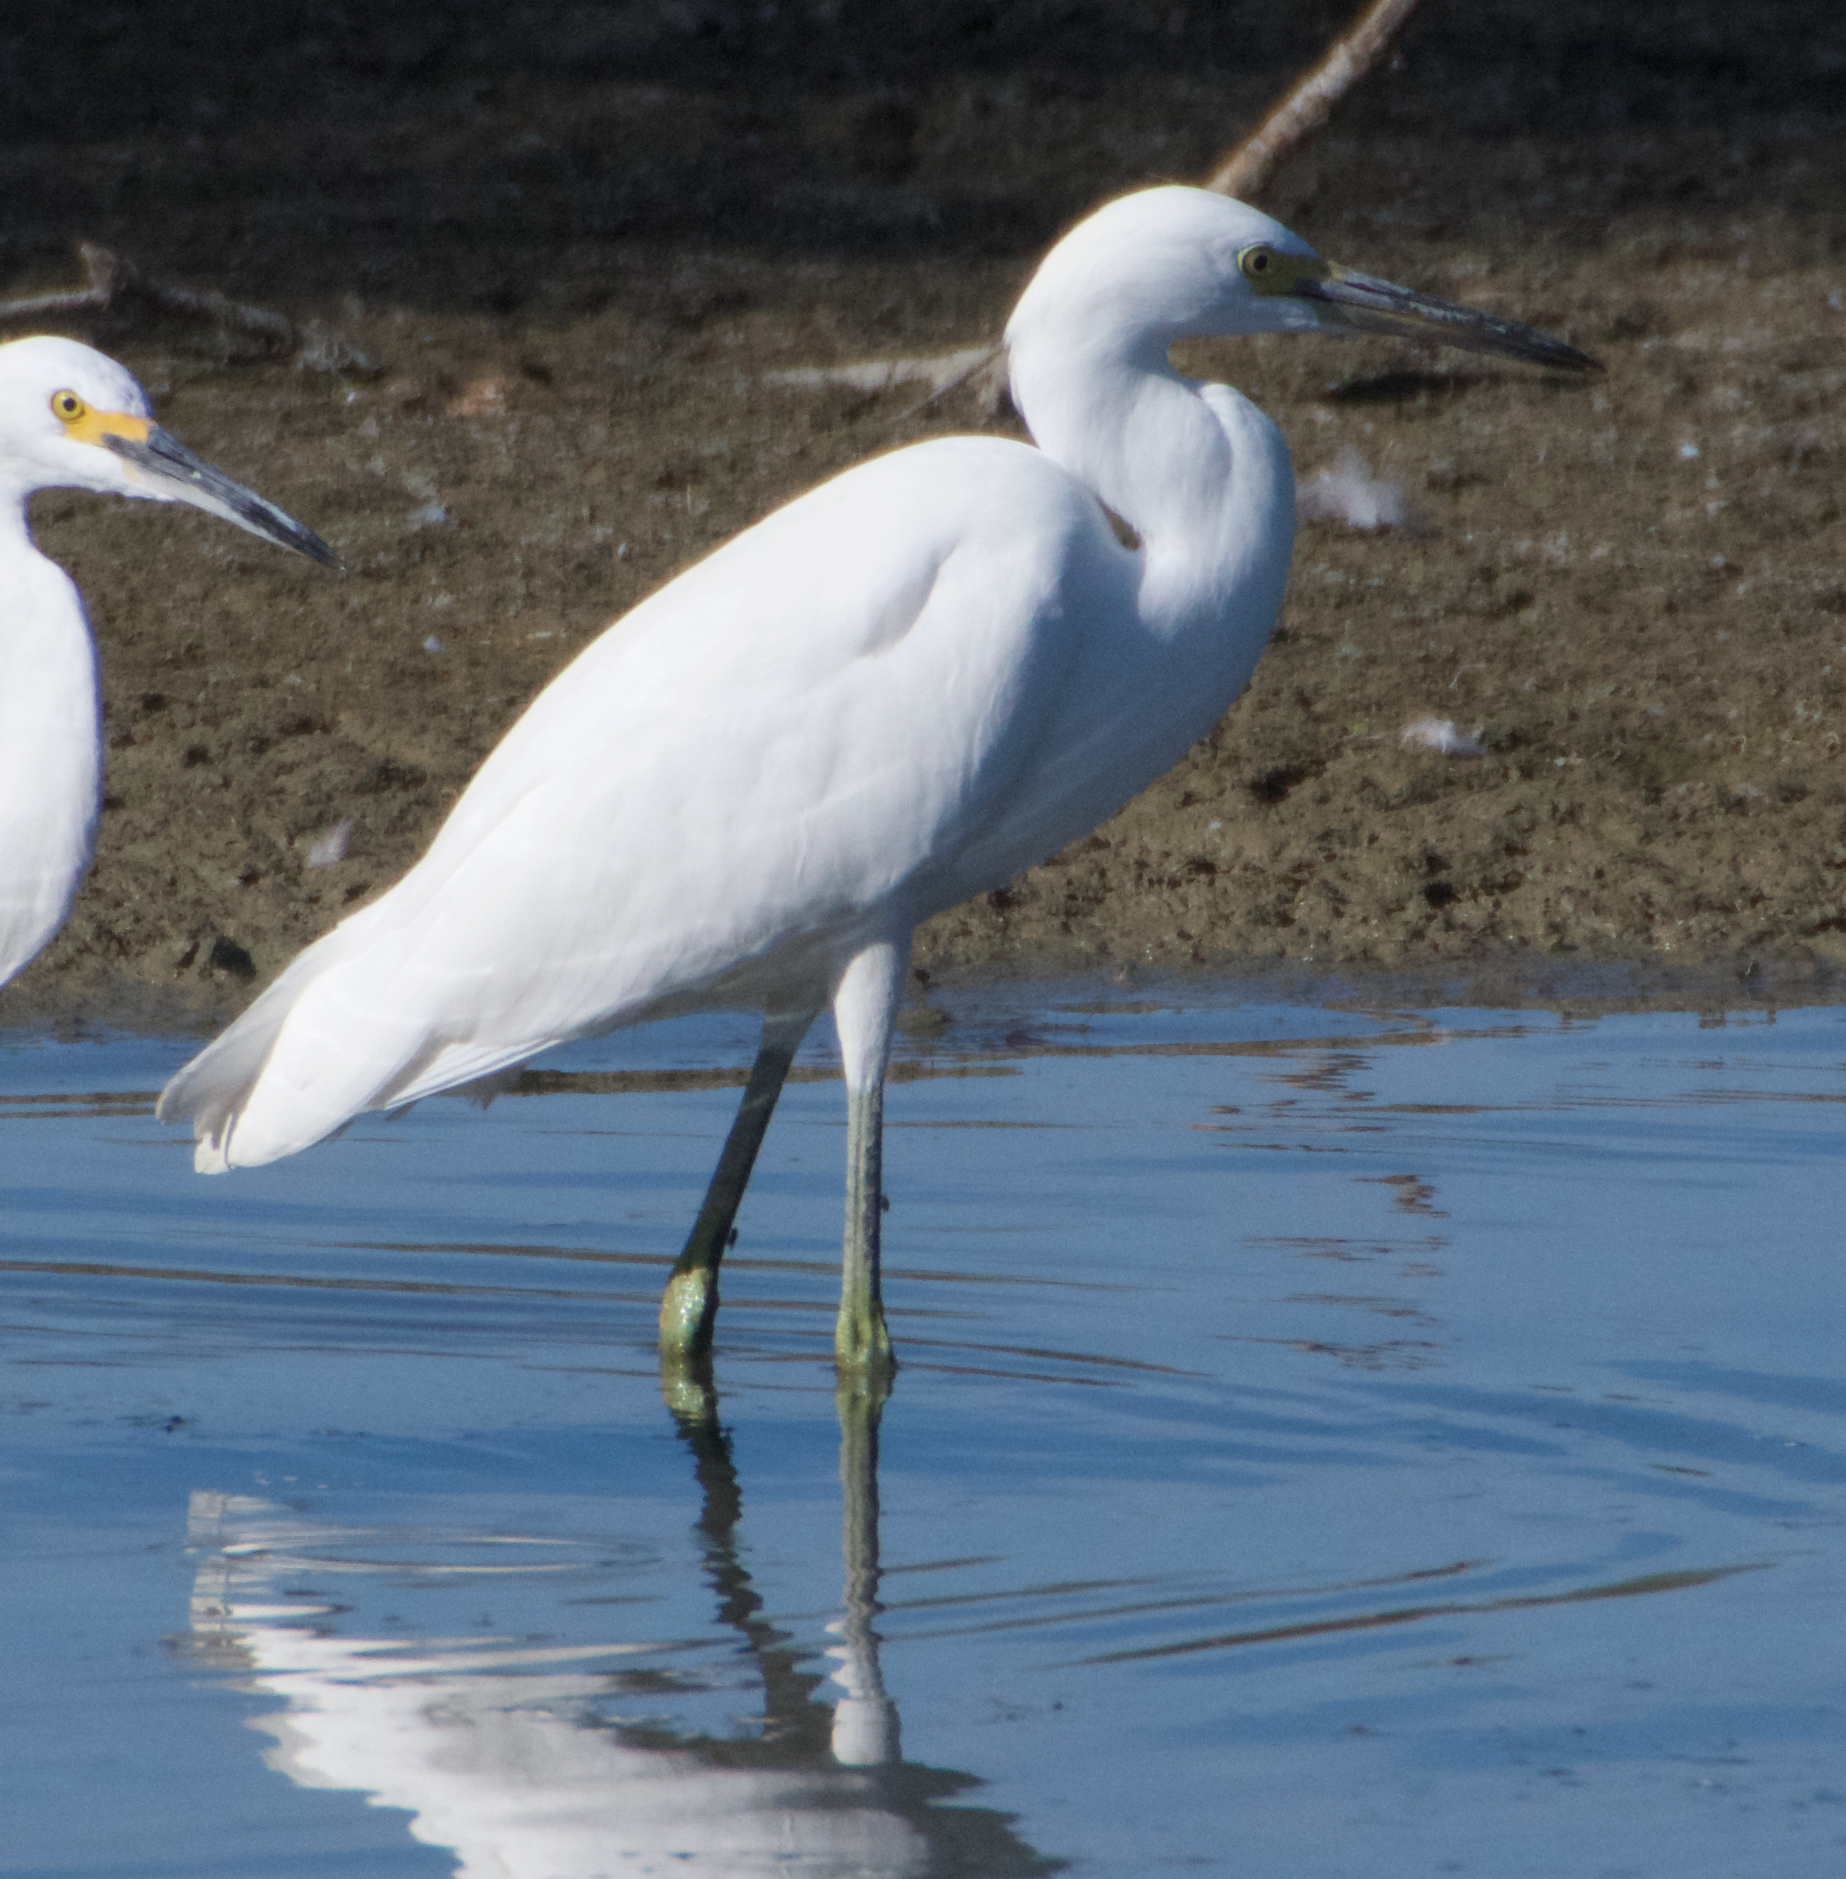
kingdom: Animalia
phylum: Chordata
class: Aves
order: Pelecaniformes
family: Ardeidae
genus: Egretta
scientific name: Egretta thula
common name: Snowy egret
